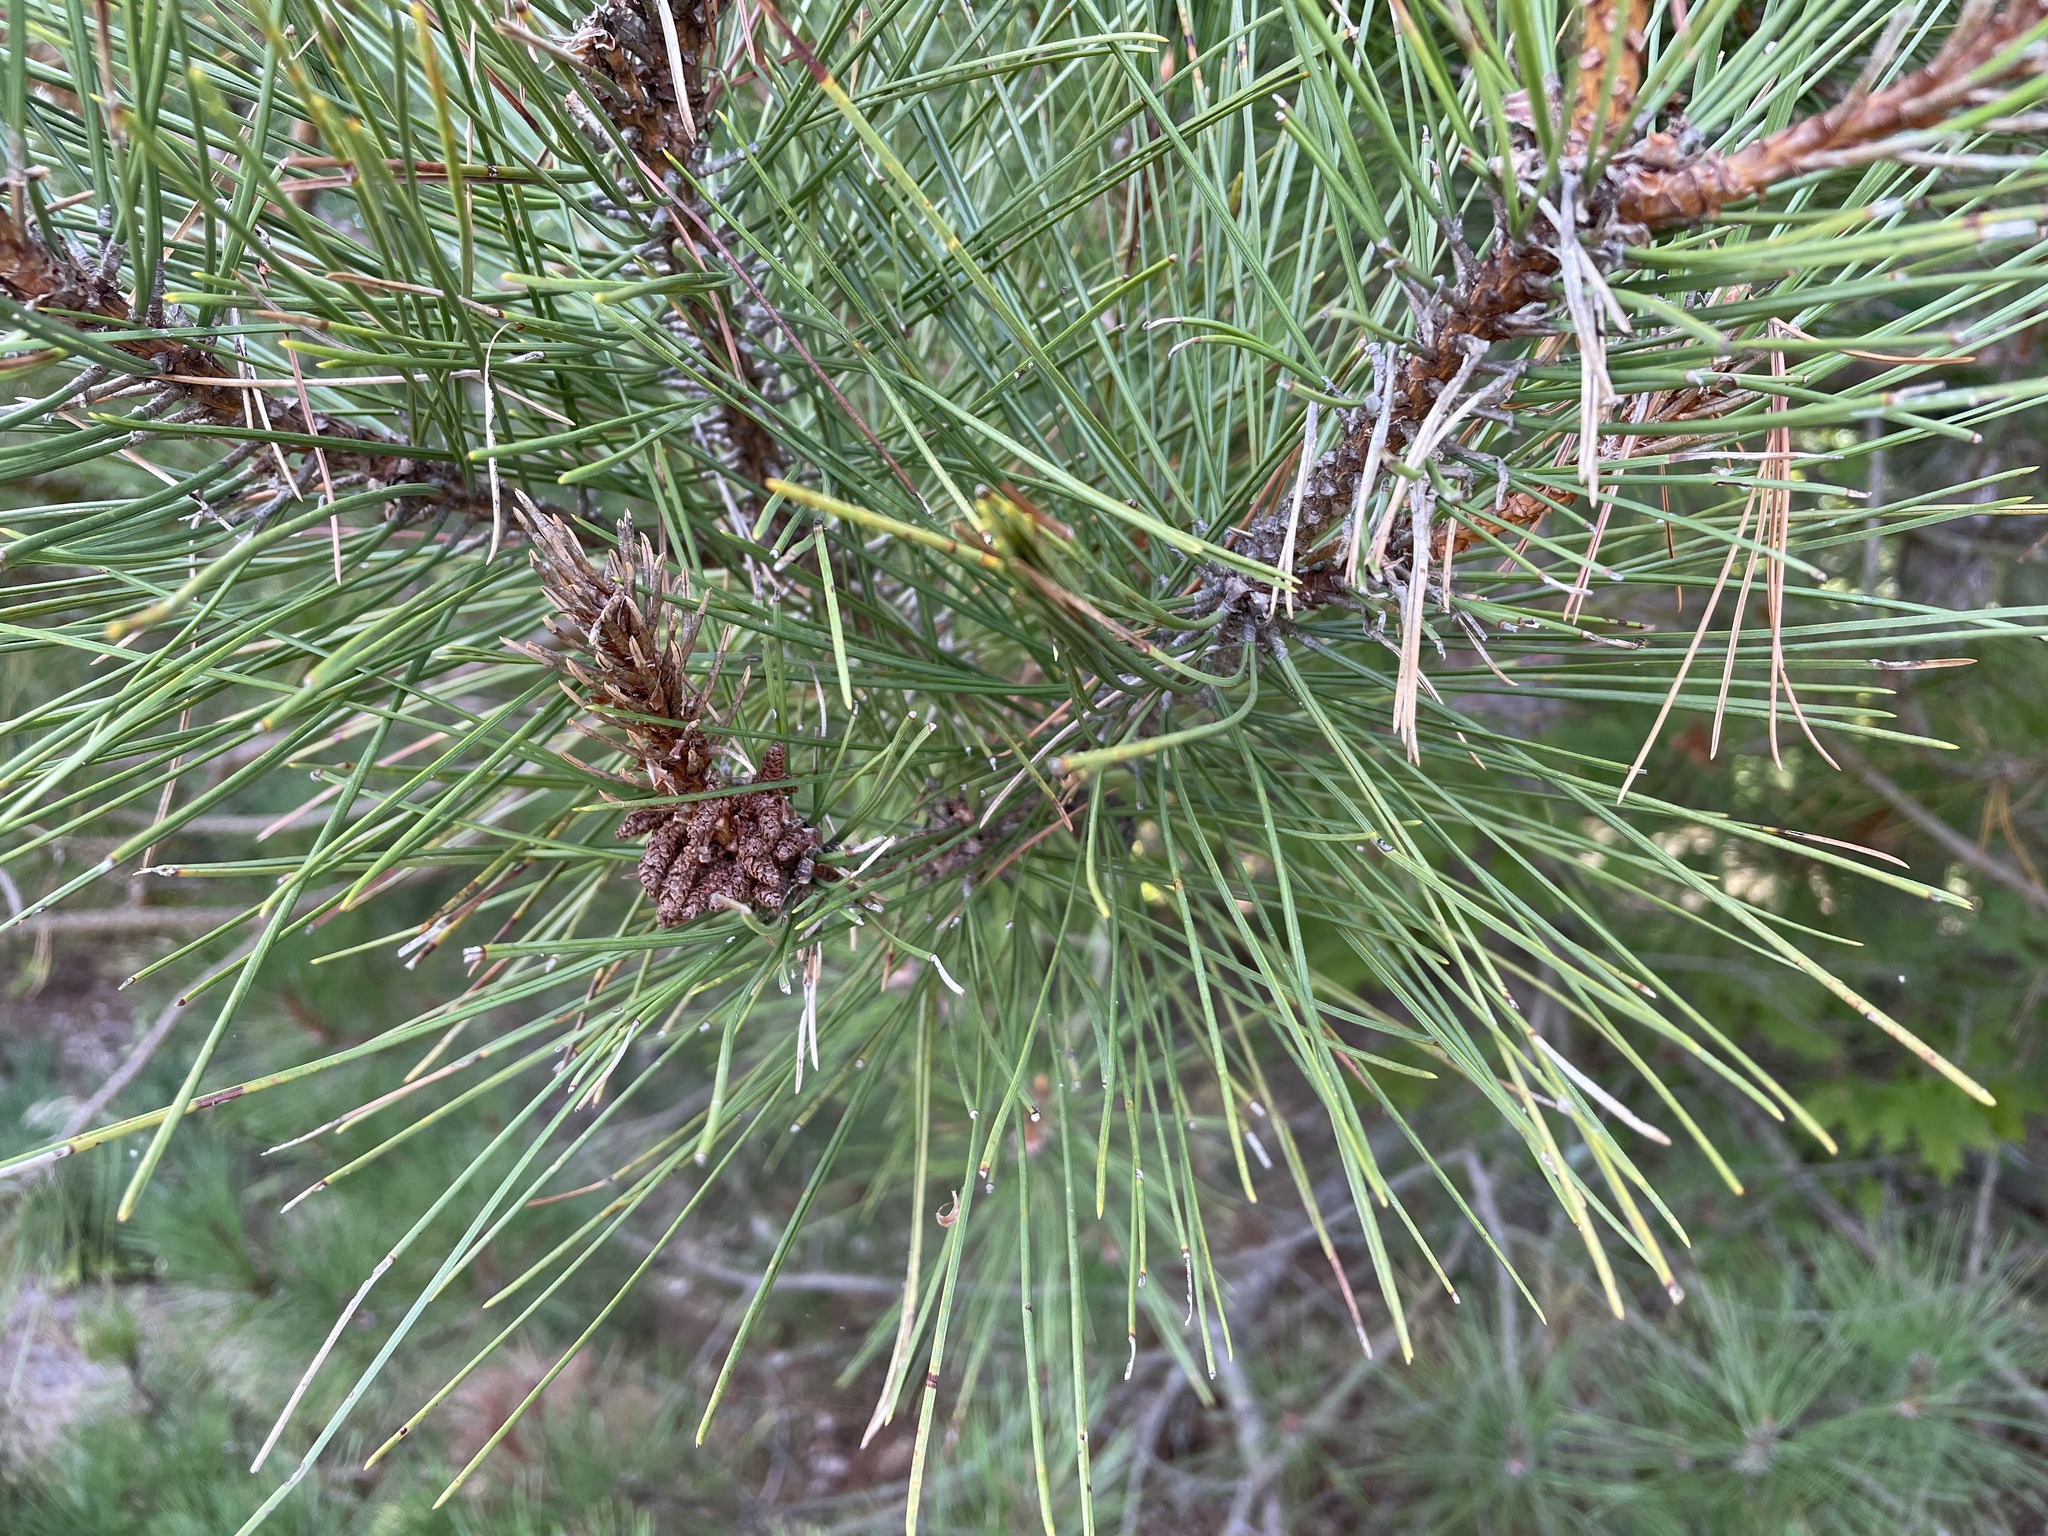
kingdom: Plantae
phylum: Tracheophyta
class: Pinopsida
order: Pinales
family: Pinaceae
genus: Pinus
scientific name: Pinus resinosa
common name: Norway pine
